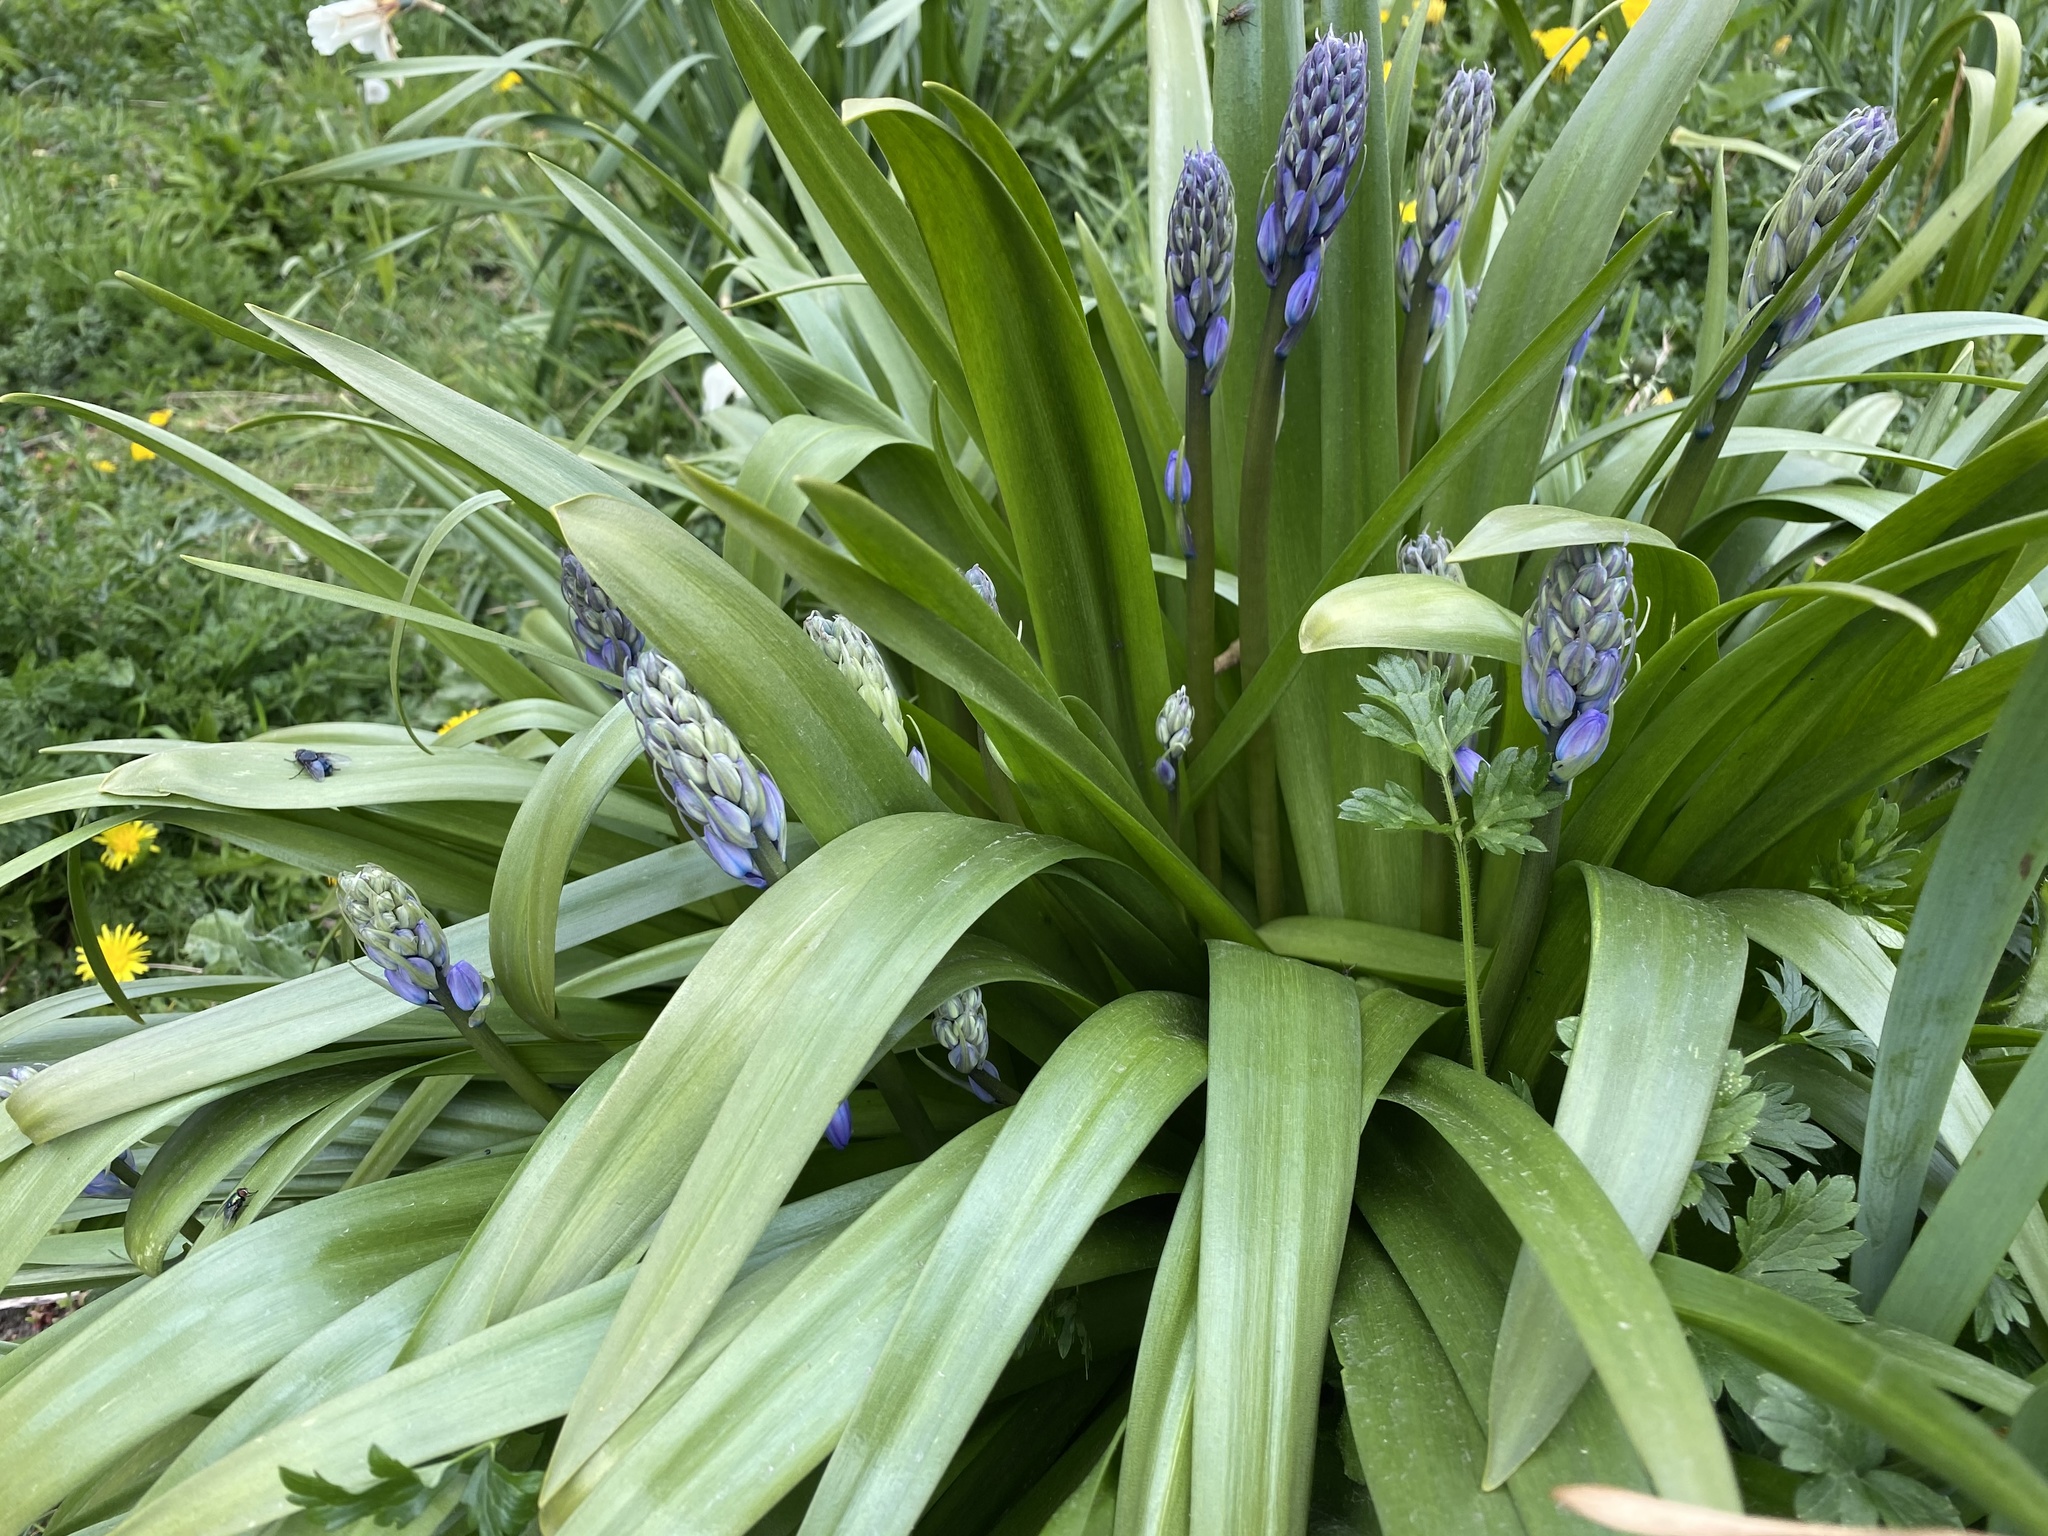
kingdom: Plantae
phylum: Tracheophyta
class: Liliopsida
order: Asparagales
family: Asparagaceae
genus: Hyacinthoides
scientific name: Hyacinthoides hispanica
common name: Spanish bluebell
